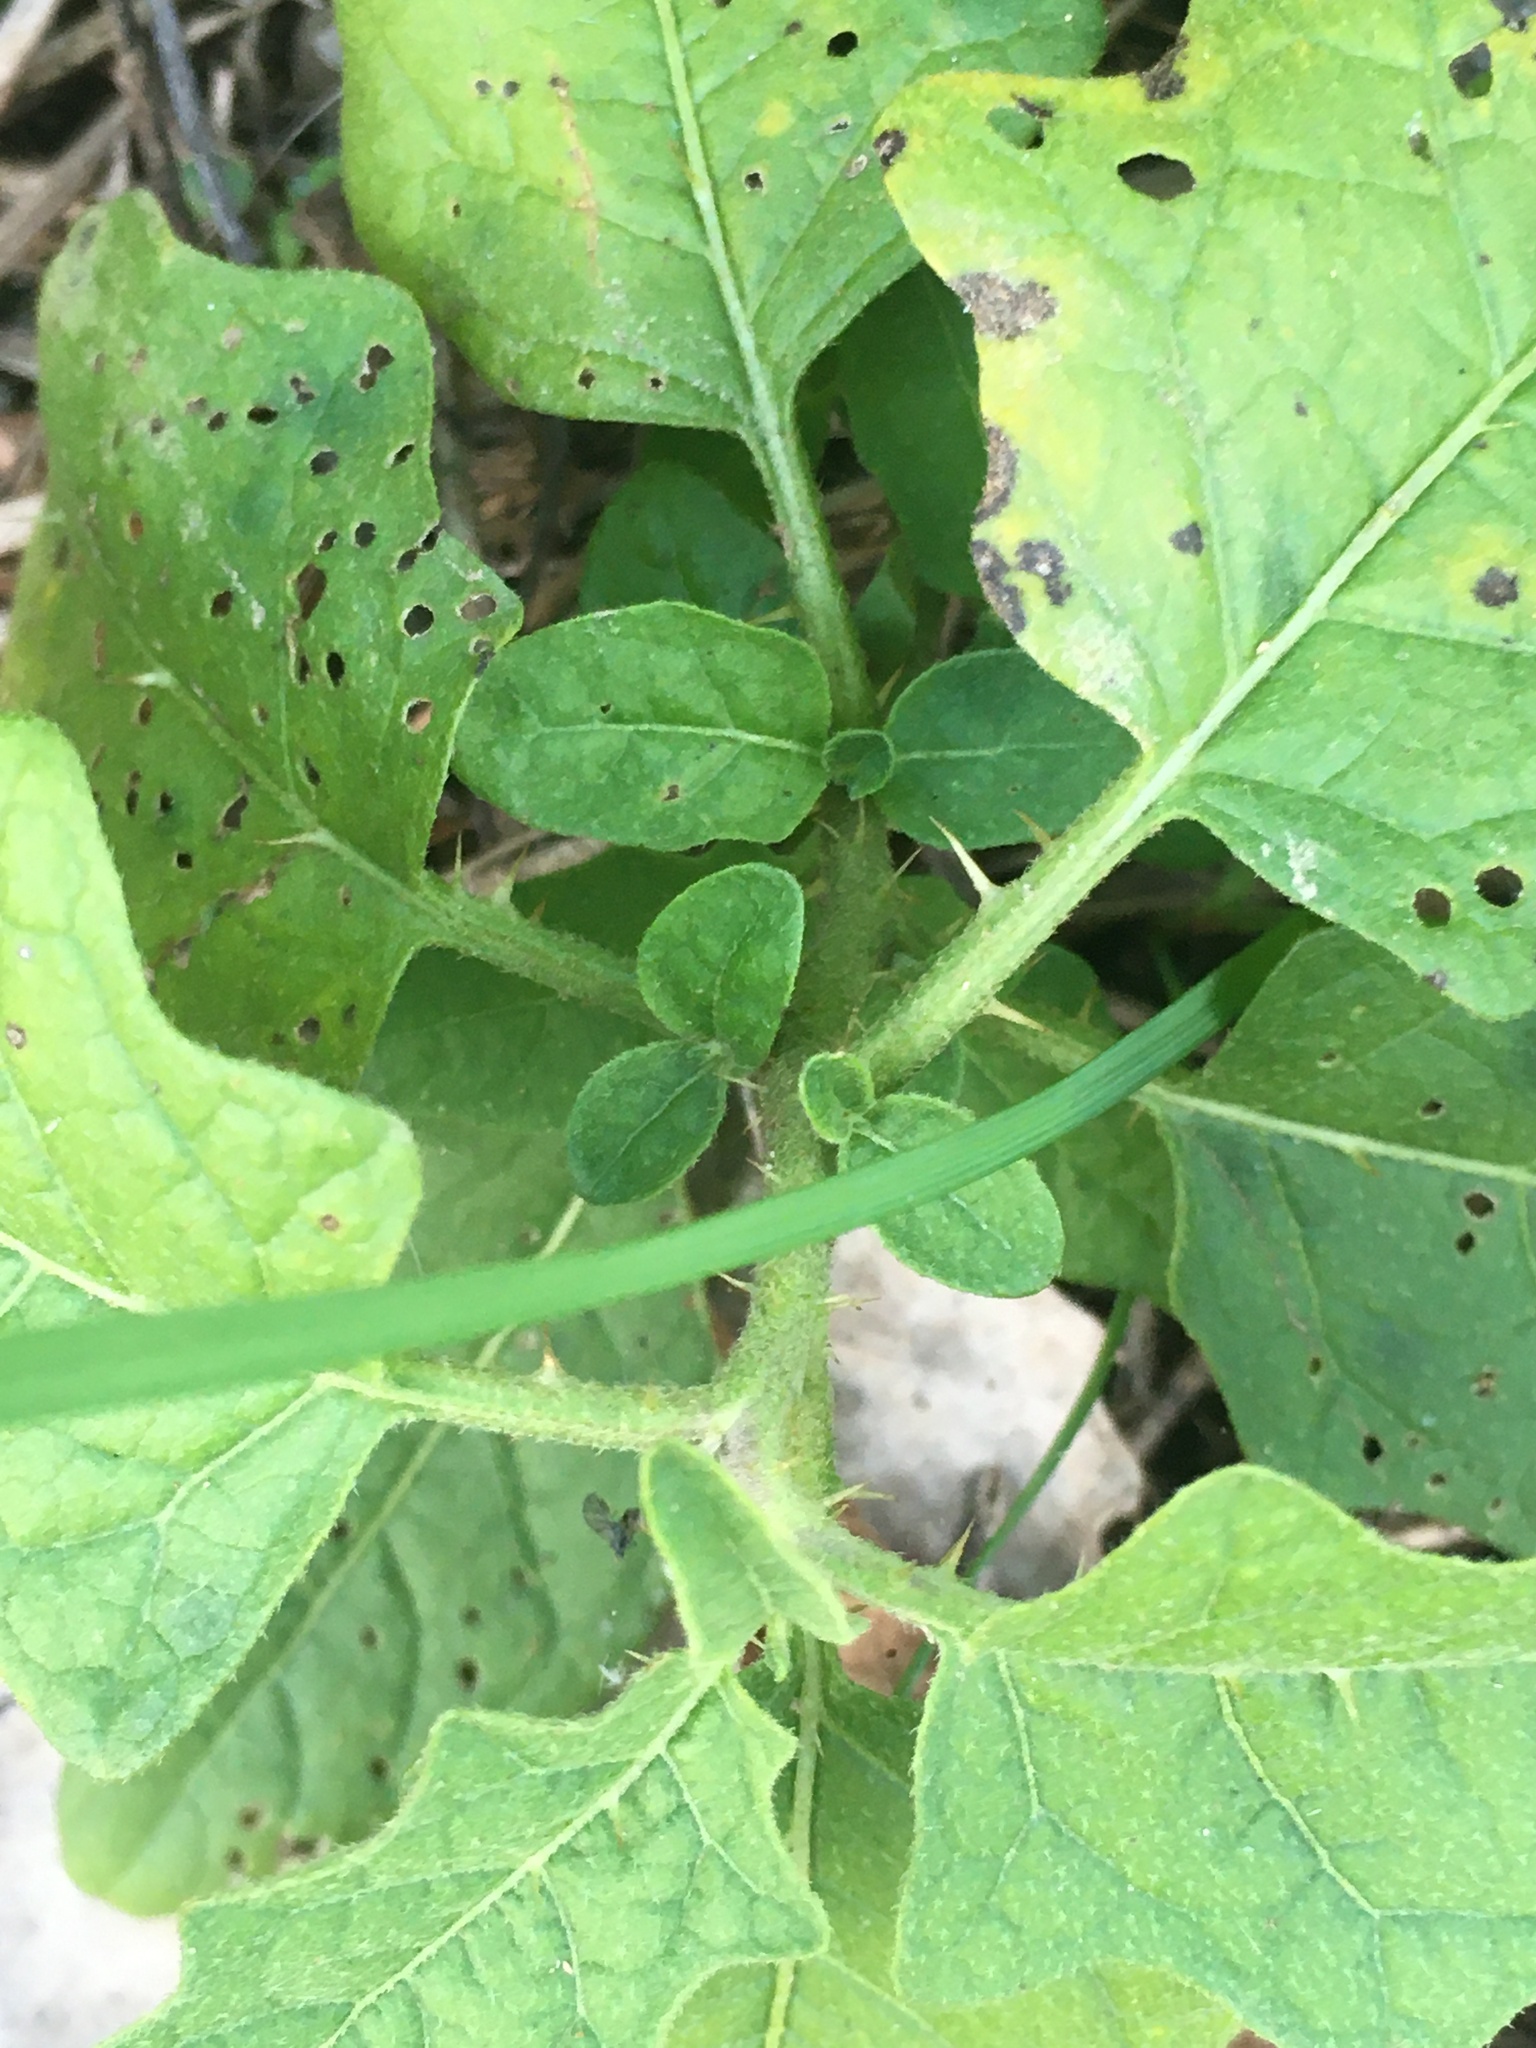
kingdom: Plantae
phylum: Tracheophyta
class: Magnoliopsida
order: Solanales
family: Solanaceae
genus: Solanum
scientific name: Solanum carolinense
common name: Horse-nettle
